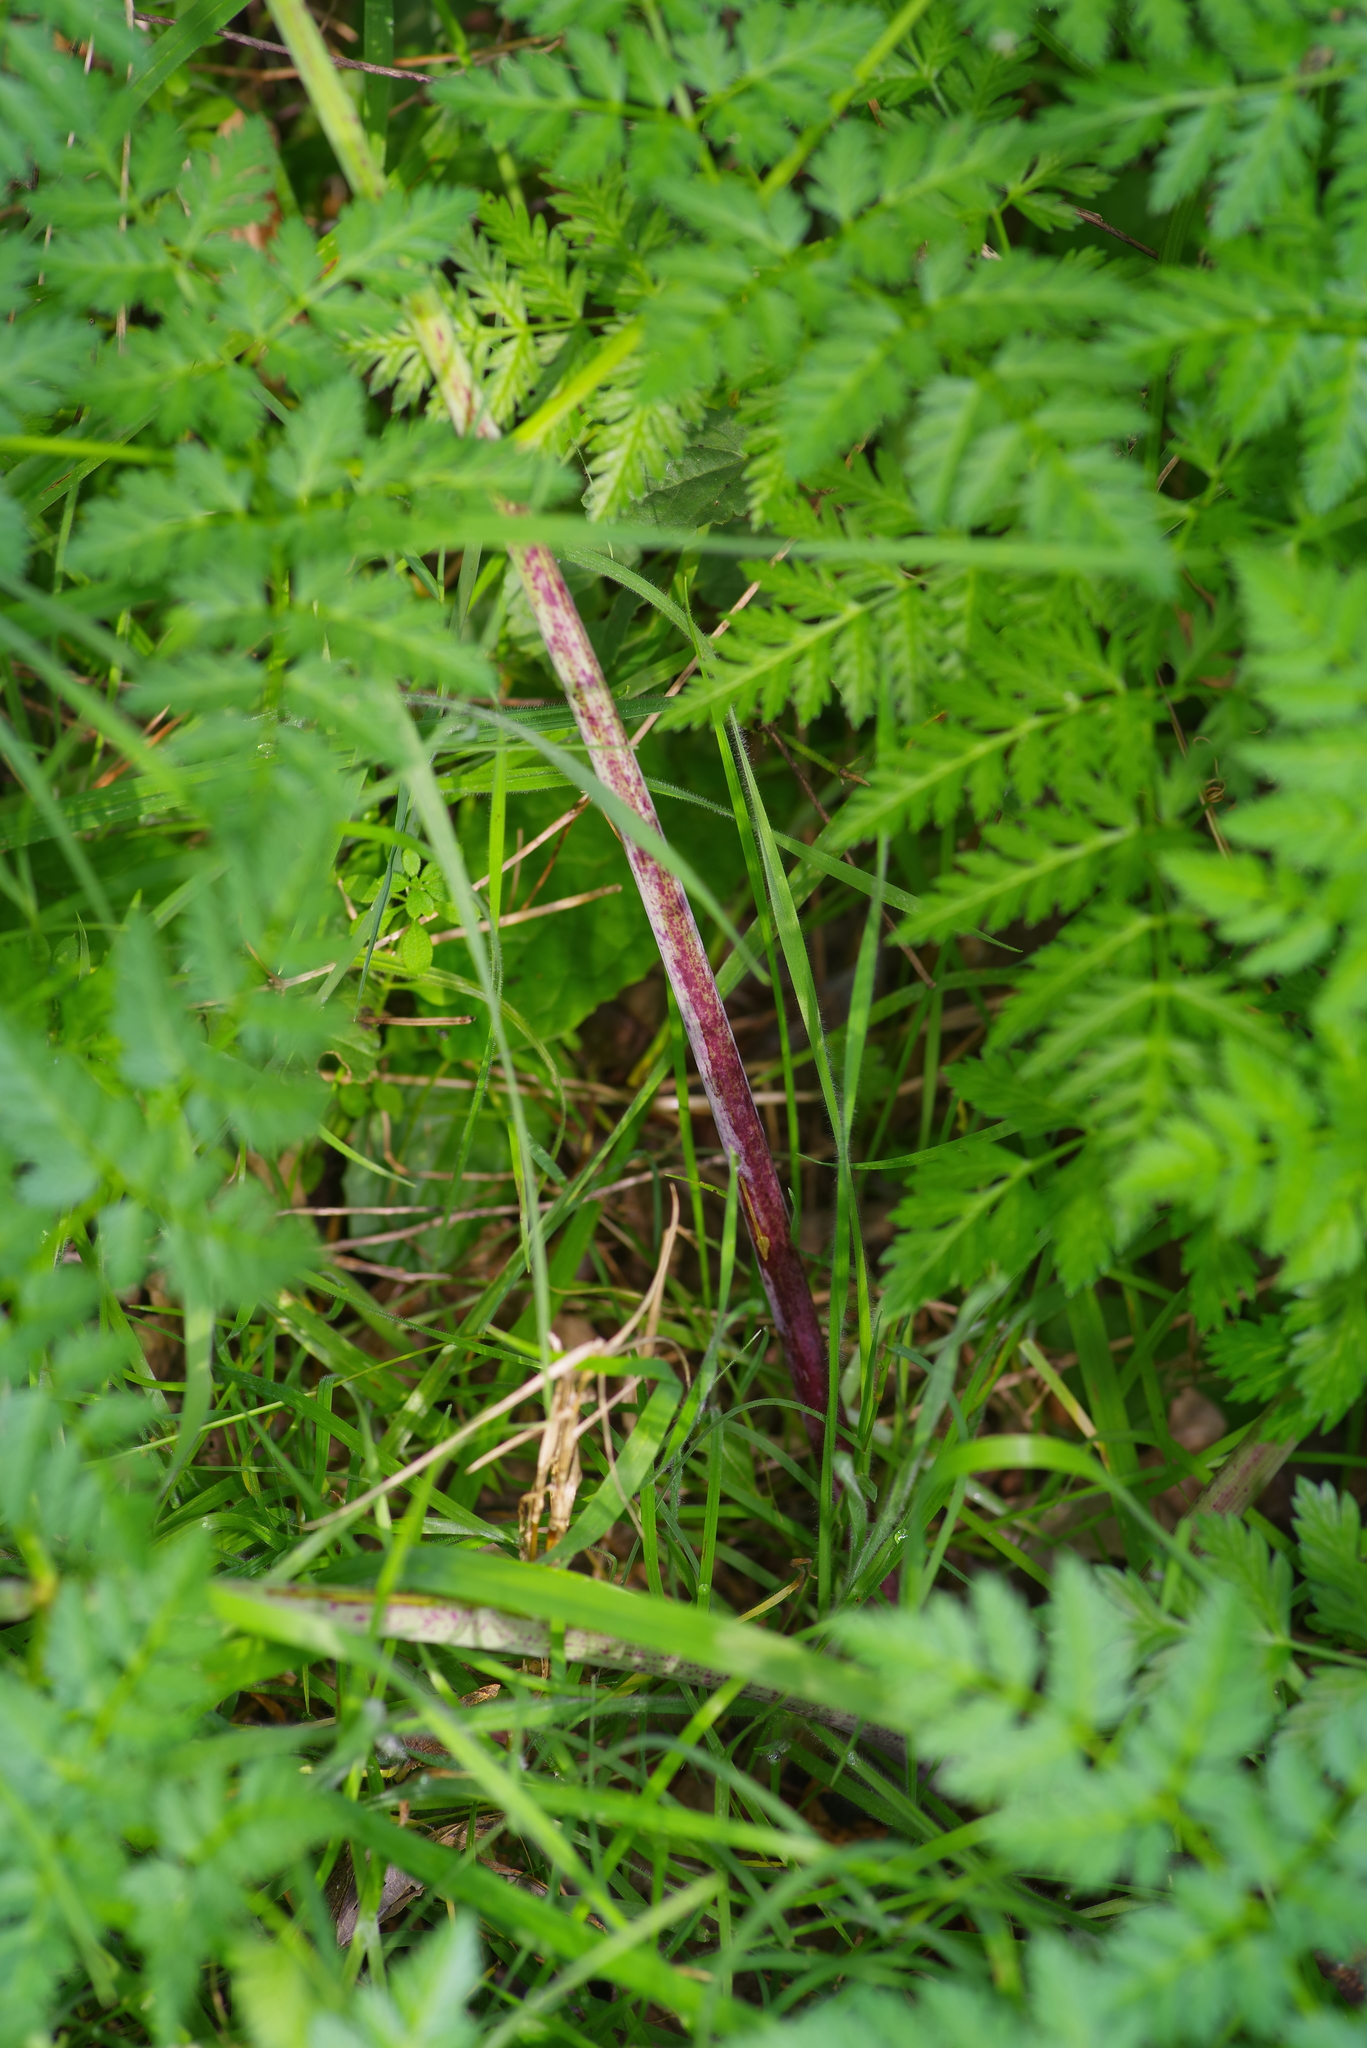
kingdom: Plantae
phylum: Tracheophyta
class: Magnoliopsida
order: Apiales
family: Apiaceae
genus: Conium
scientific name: Conium maculatum
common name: Hemlock
